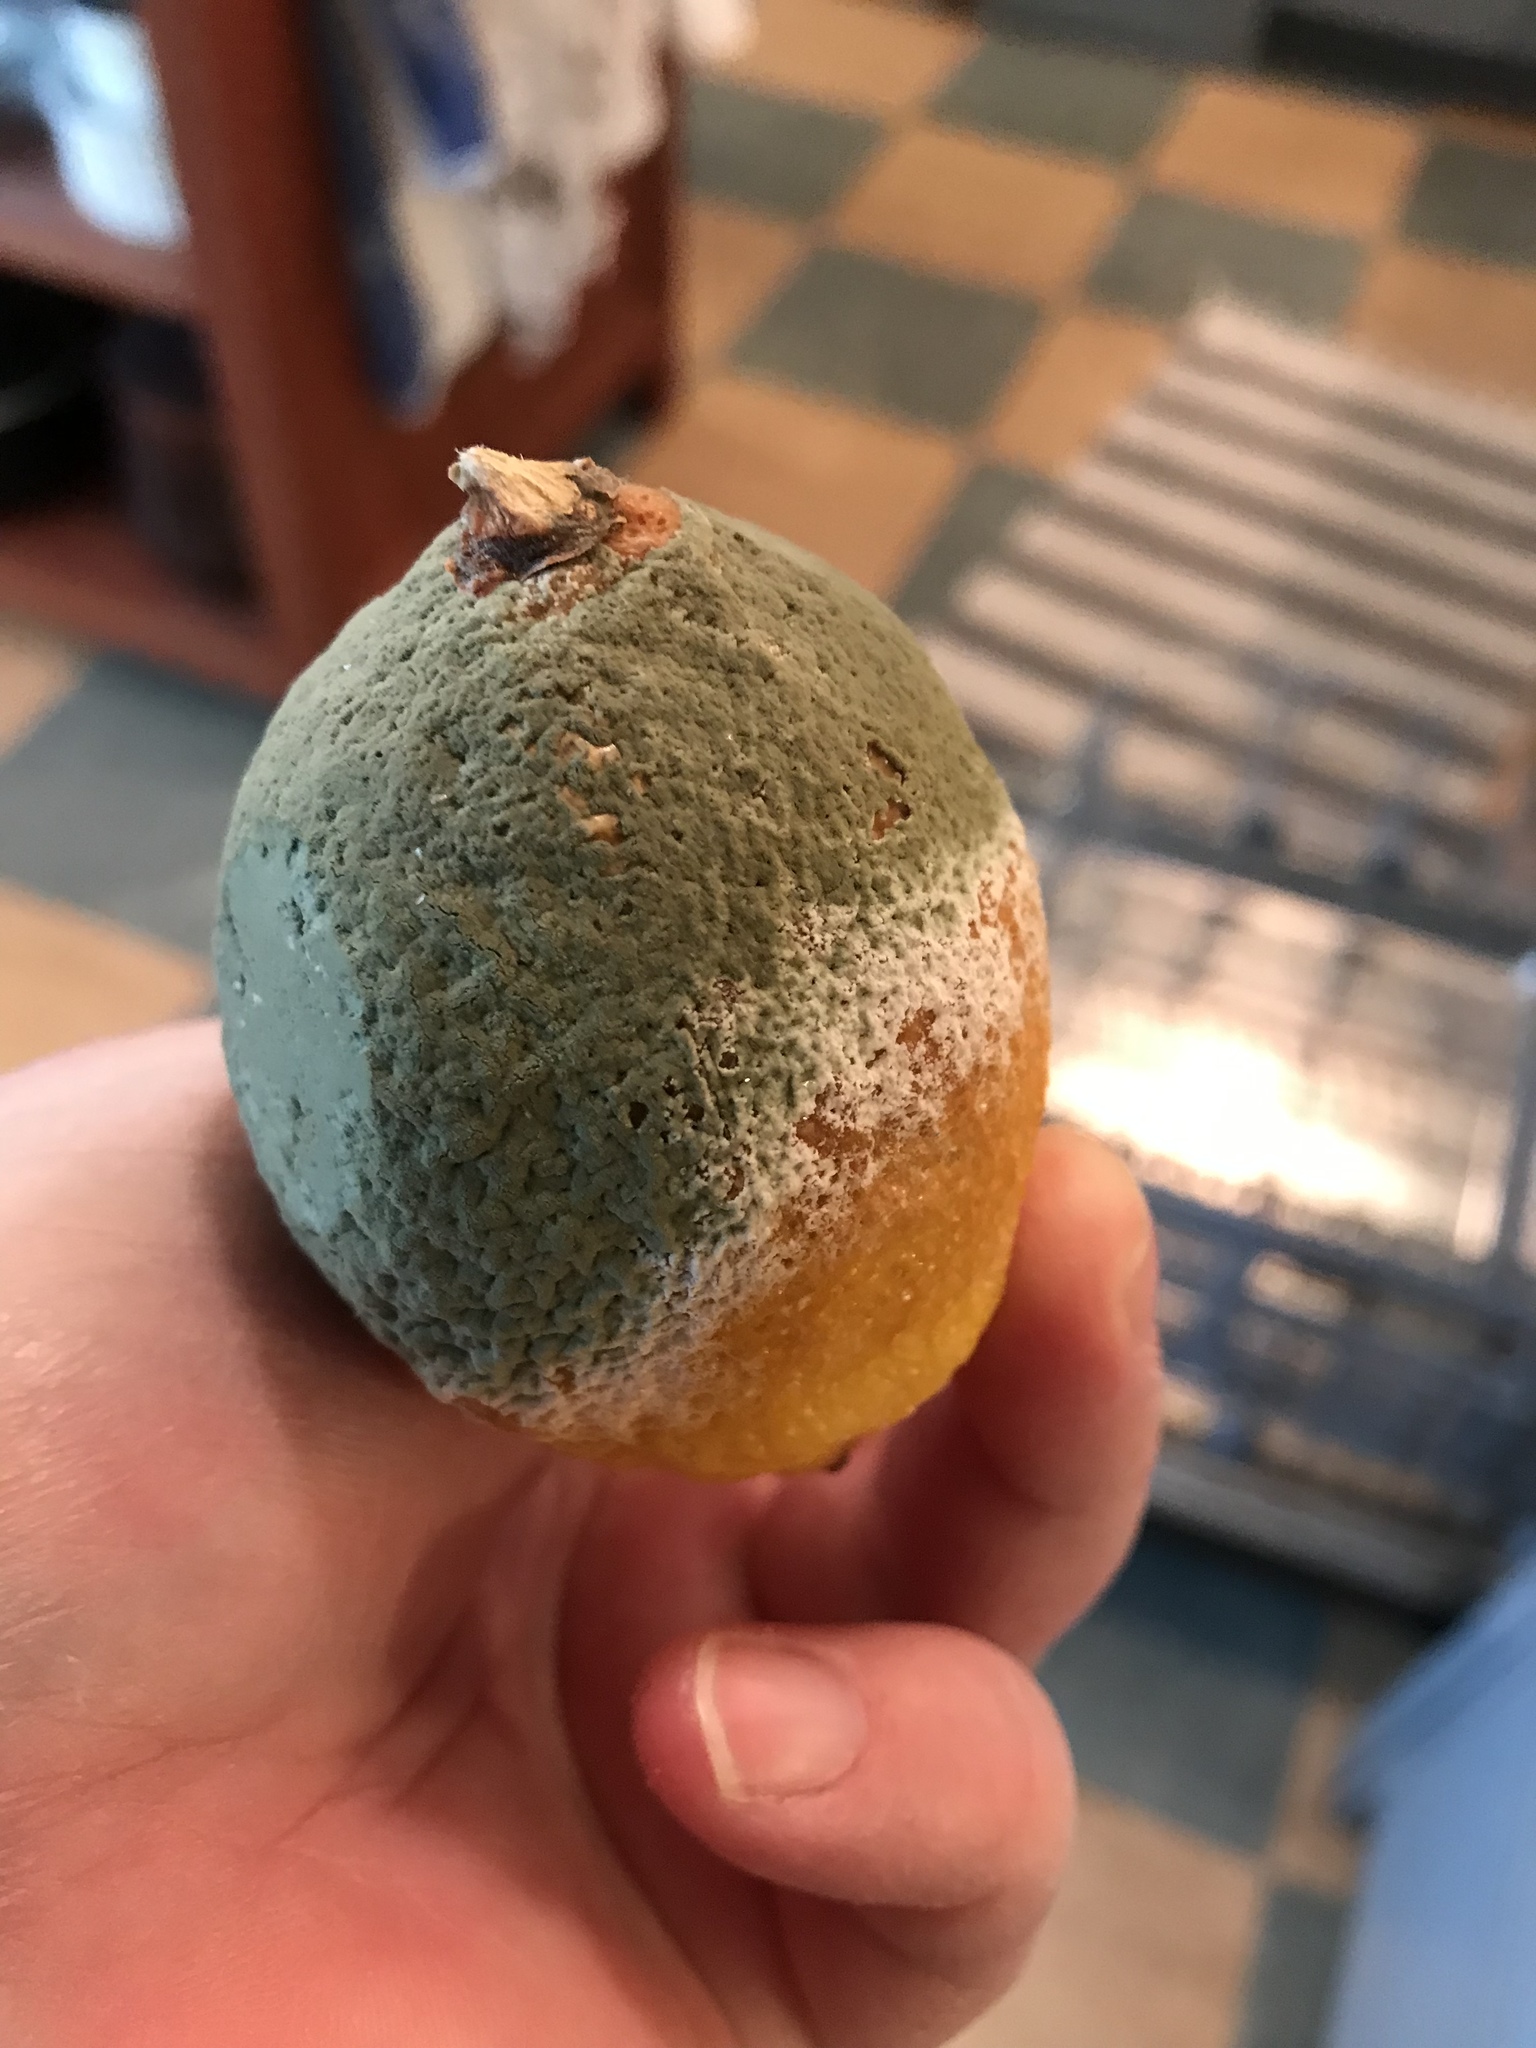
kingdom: Fungi
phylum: Ascomycota
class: Eurotiomycetes
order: Eurotiales
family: Aspergillaceae
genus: Penicillium
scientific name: Penicillium digitatum
